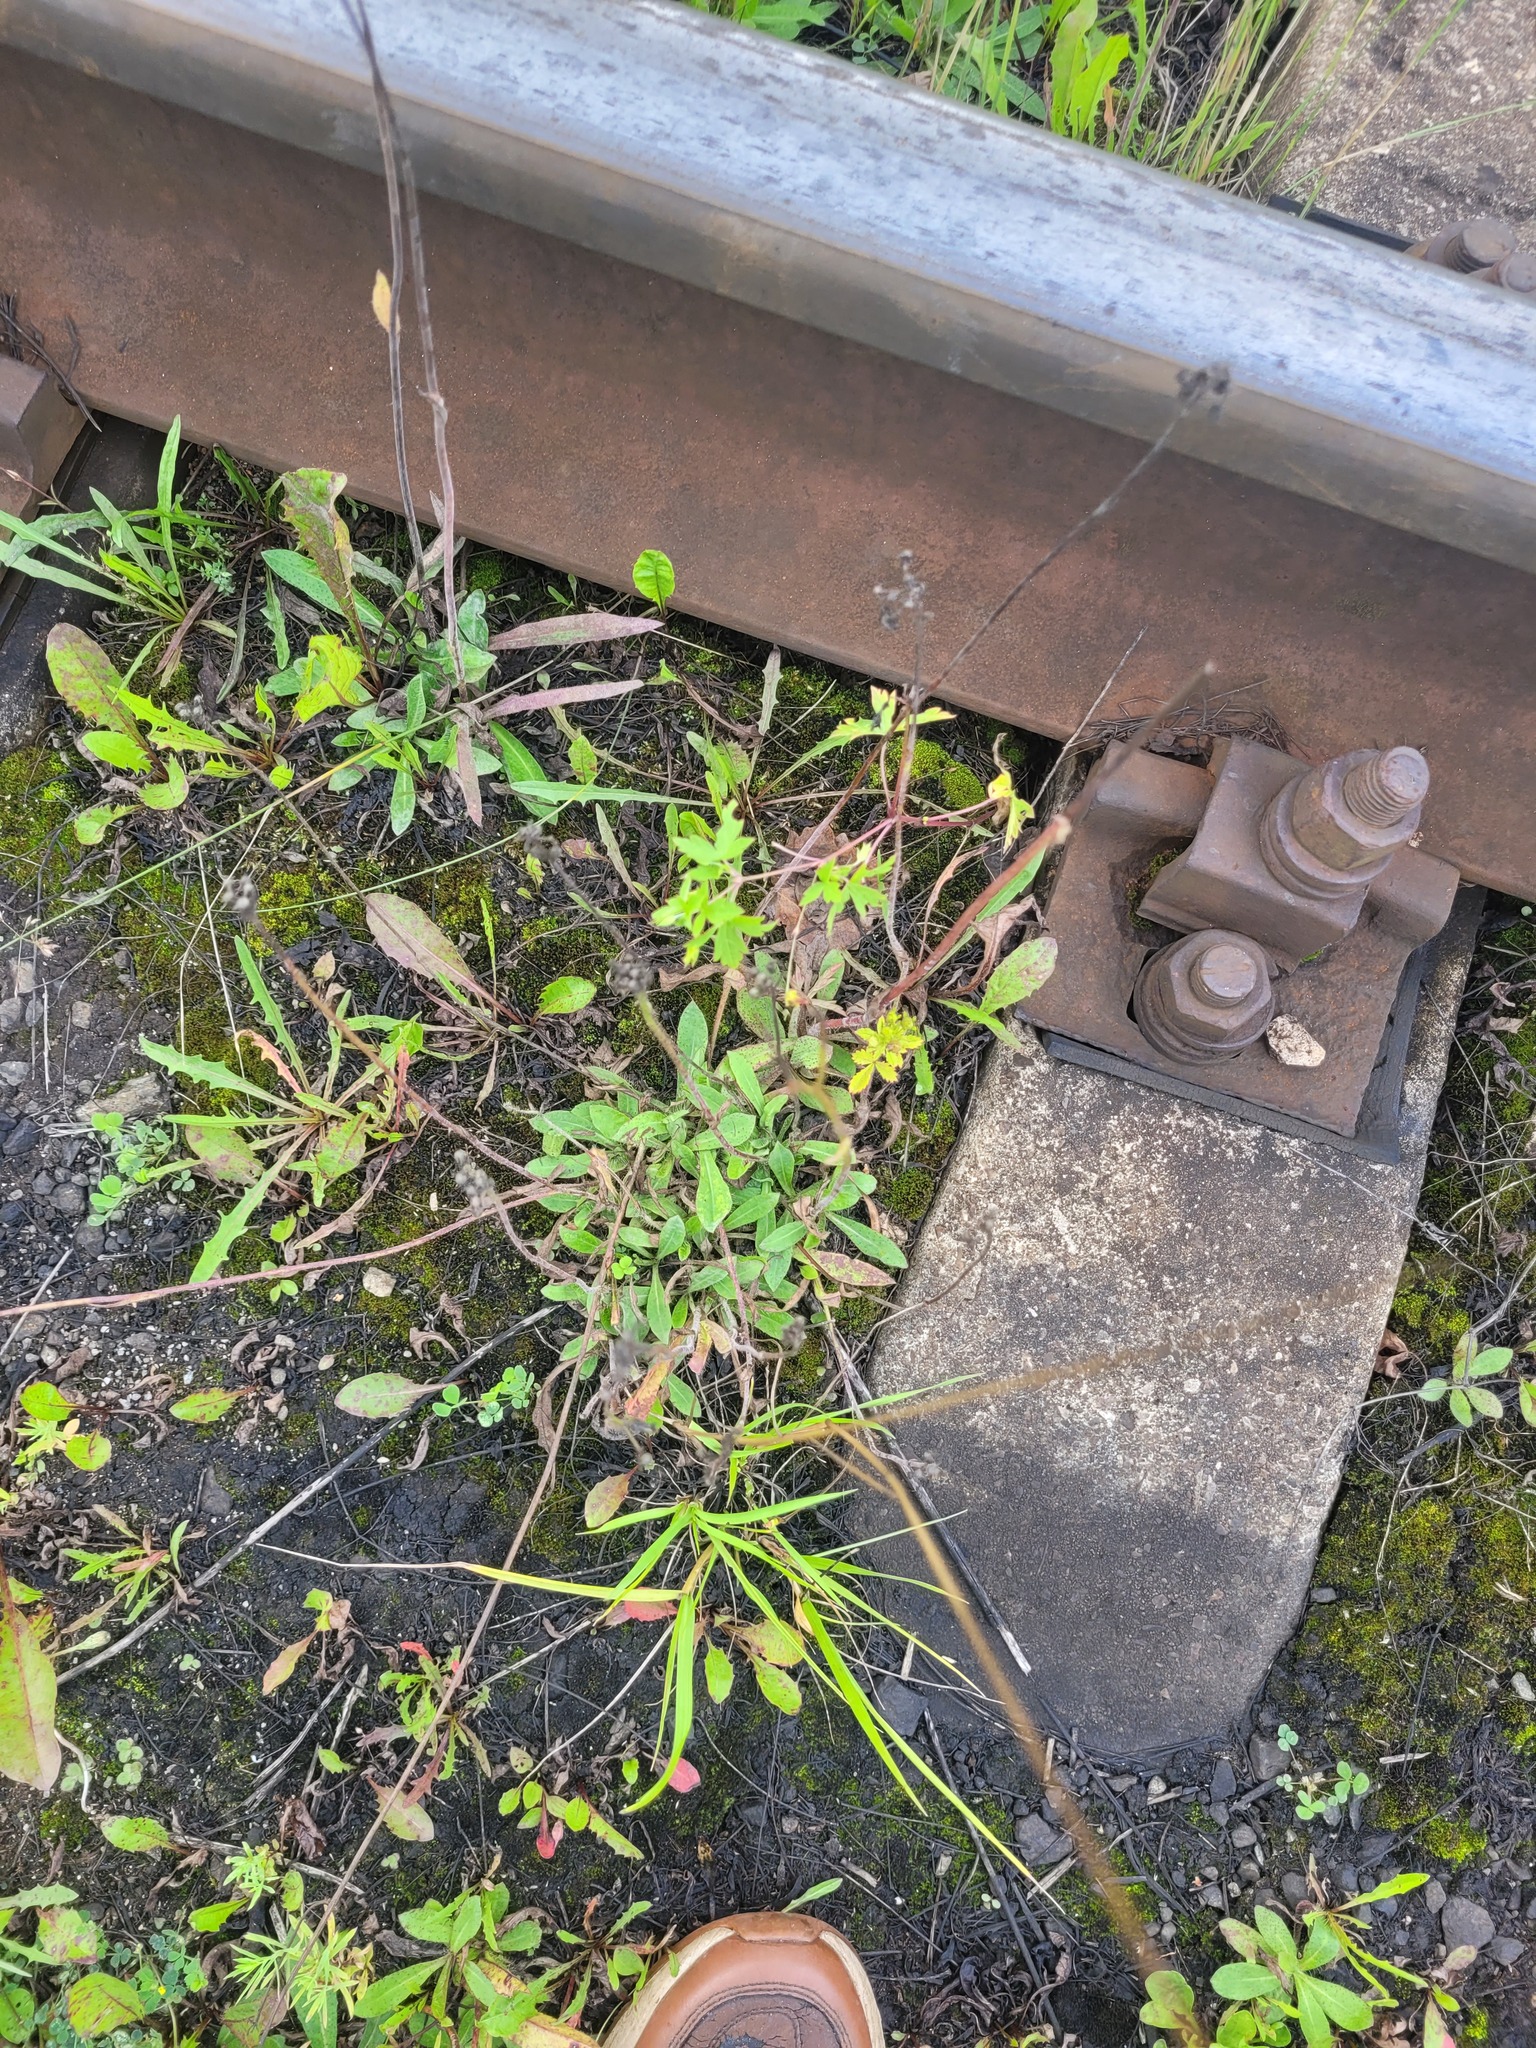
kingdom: Plantae
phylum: Tracheophyta
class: Magnoliopsida
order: Asterales
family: Asteraceae
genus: Pilosella
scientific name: Pilosella
